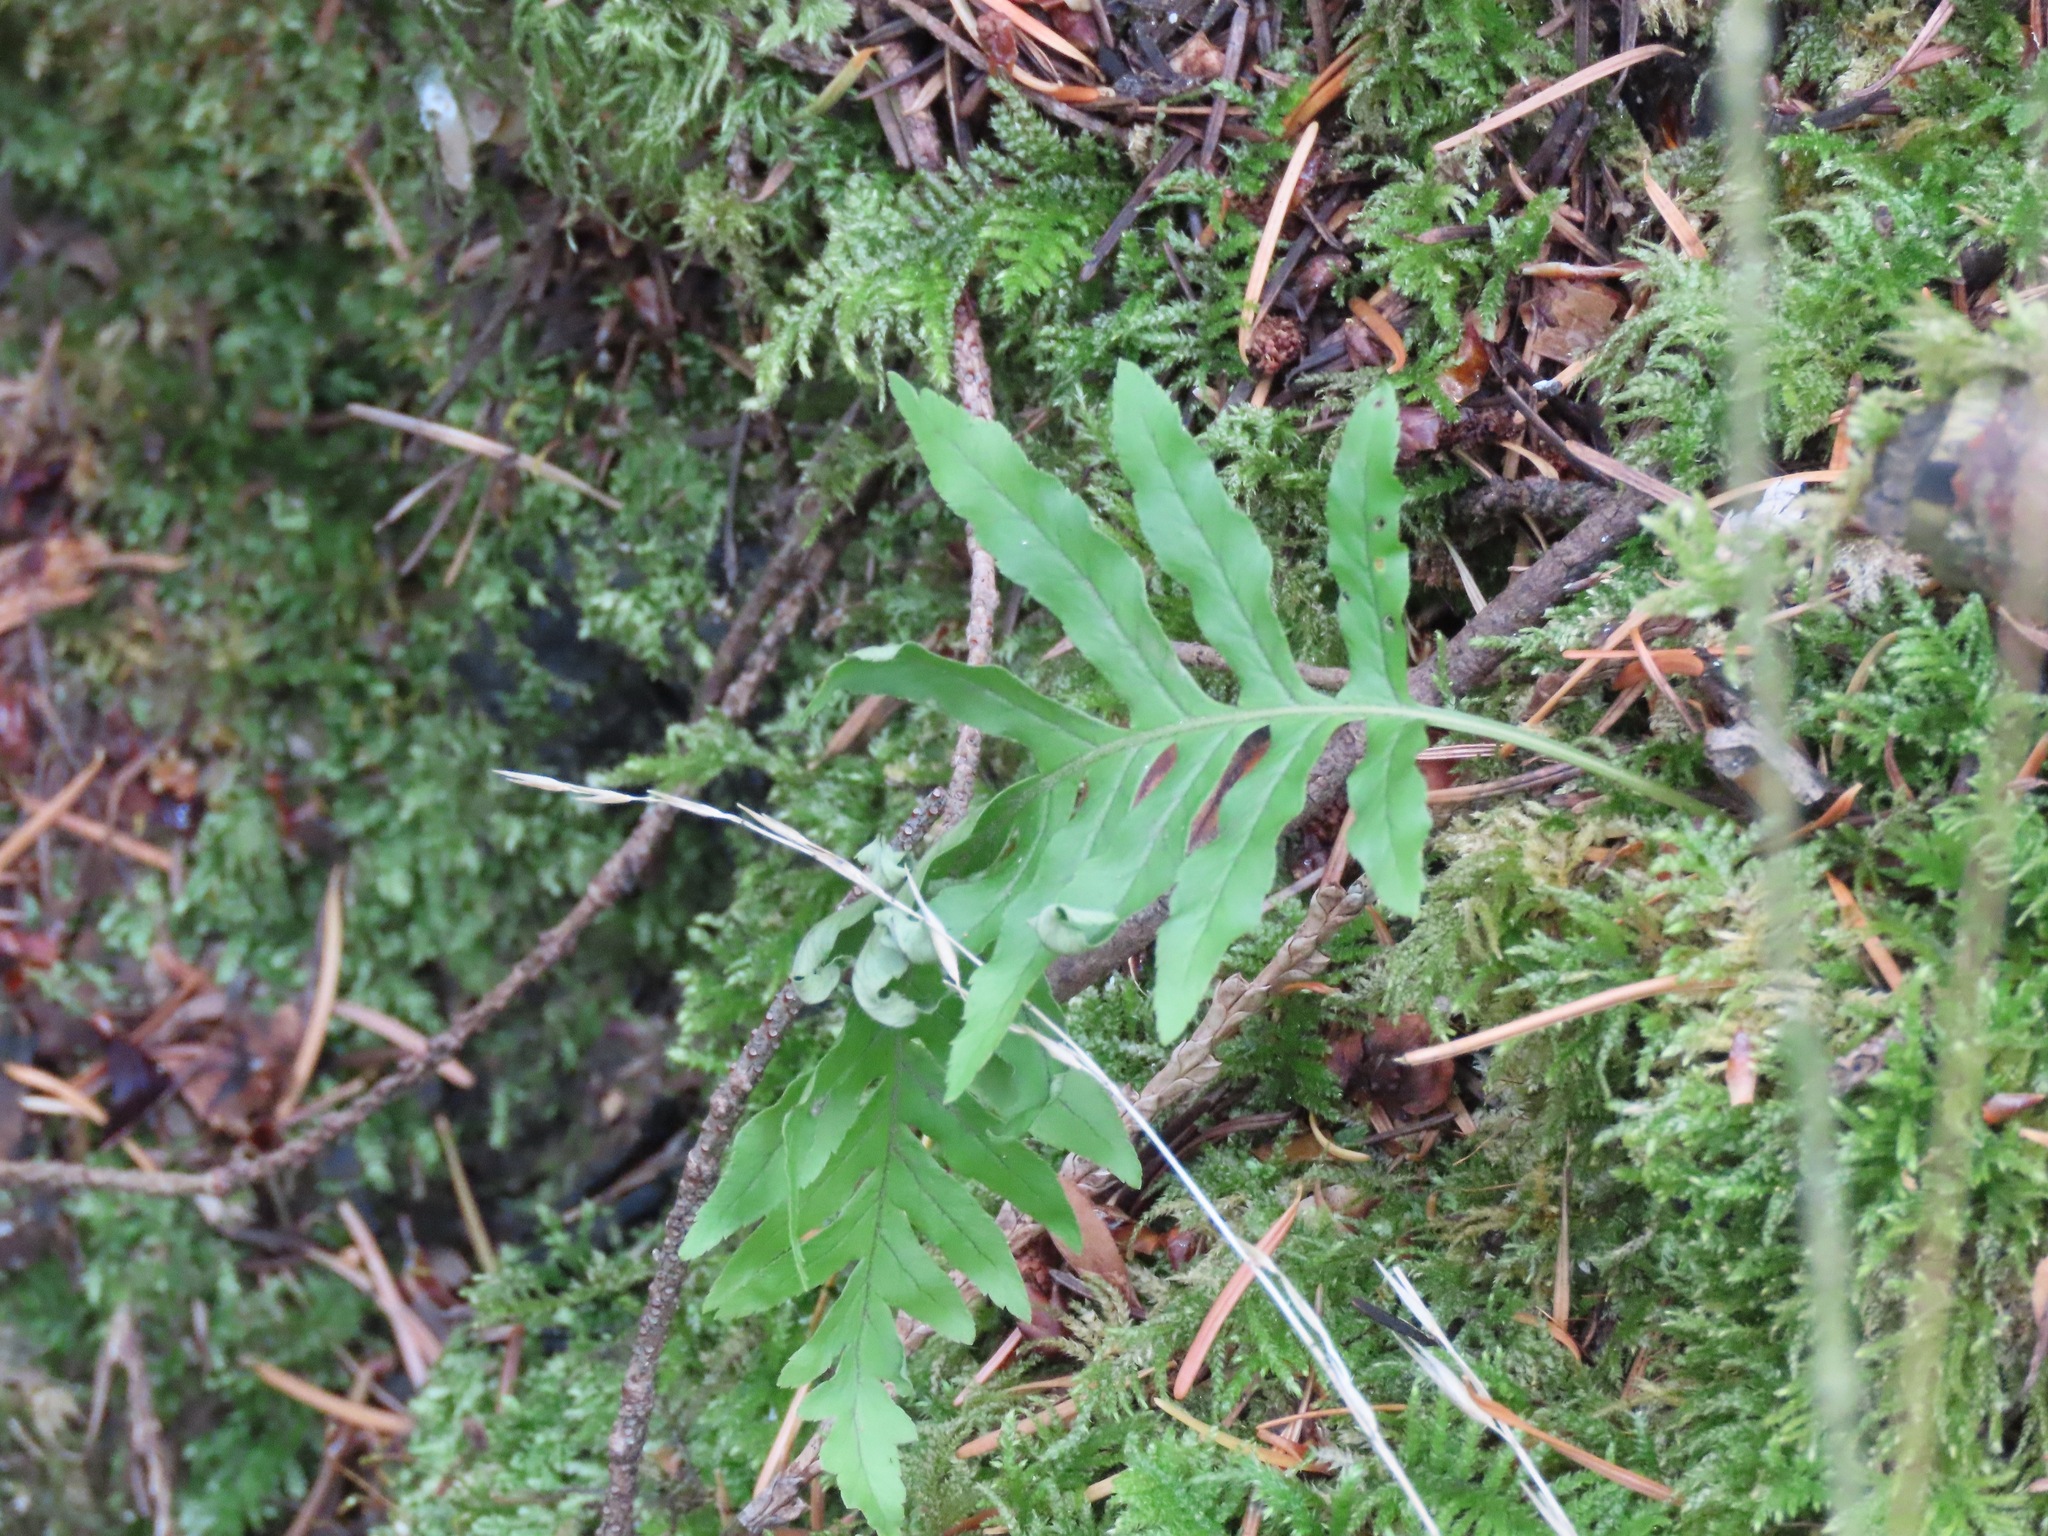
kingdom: Plantae
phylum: Tracheophyta
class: Polypodiopsida
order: Polypodiales
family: Polypodiaceae
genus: Polypodium
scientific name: Polypodium glycyrrhiza
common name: Licorice fern
